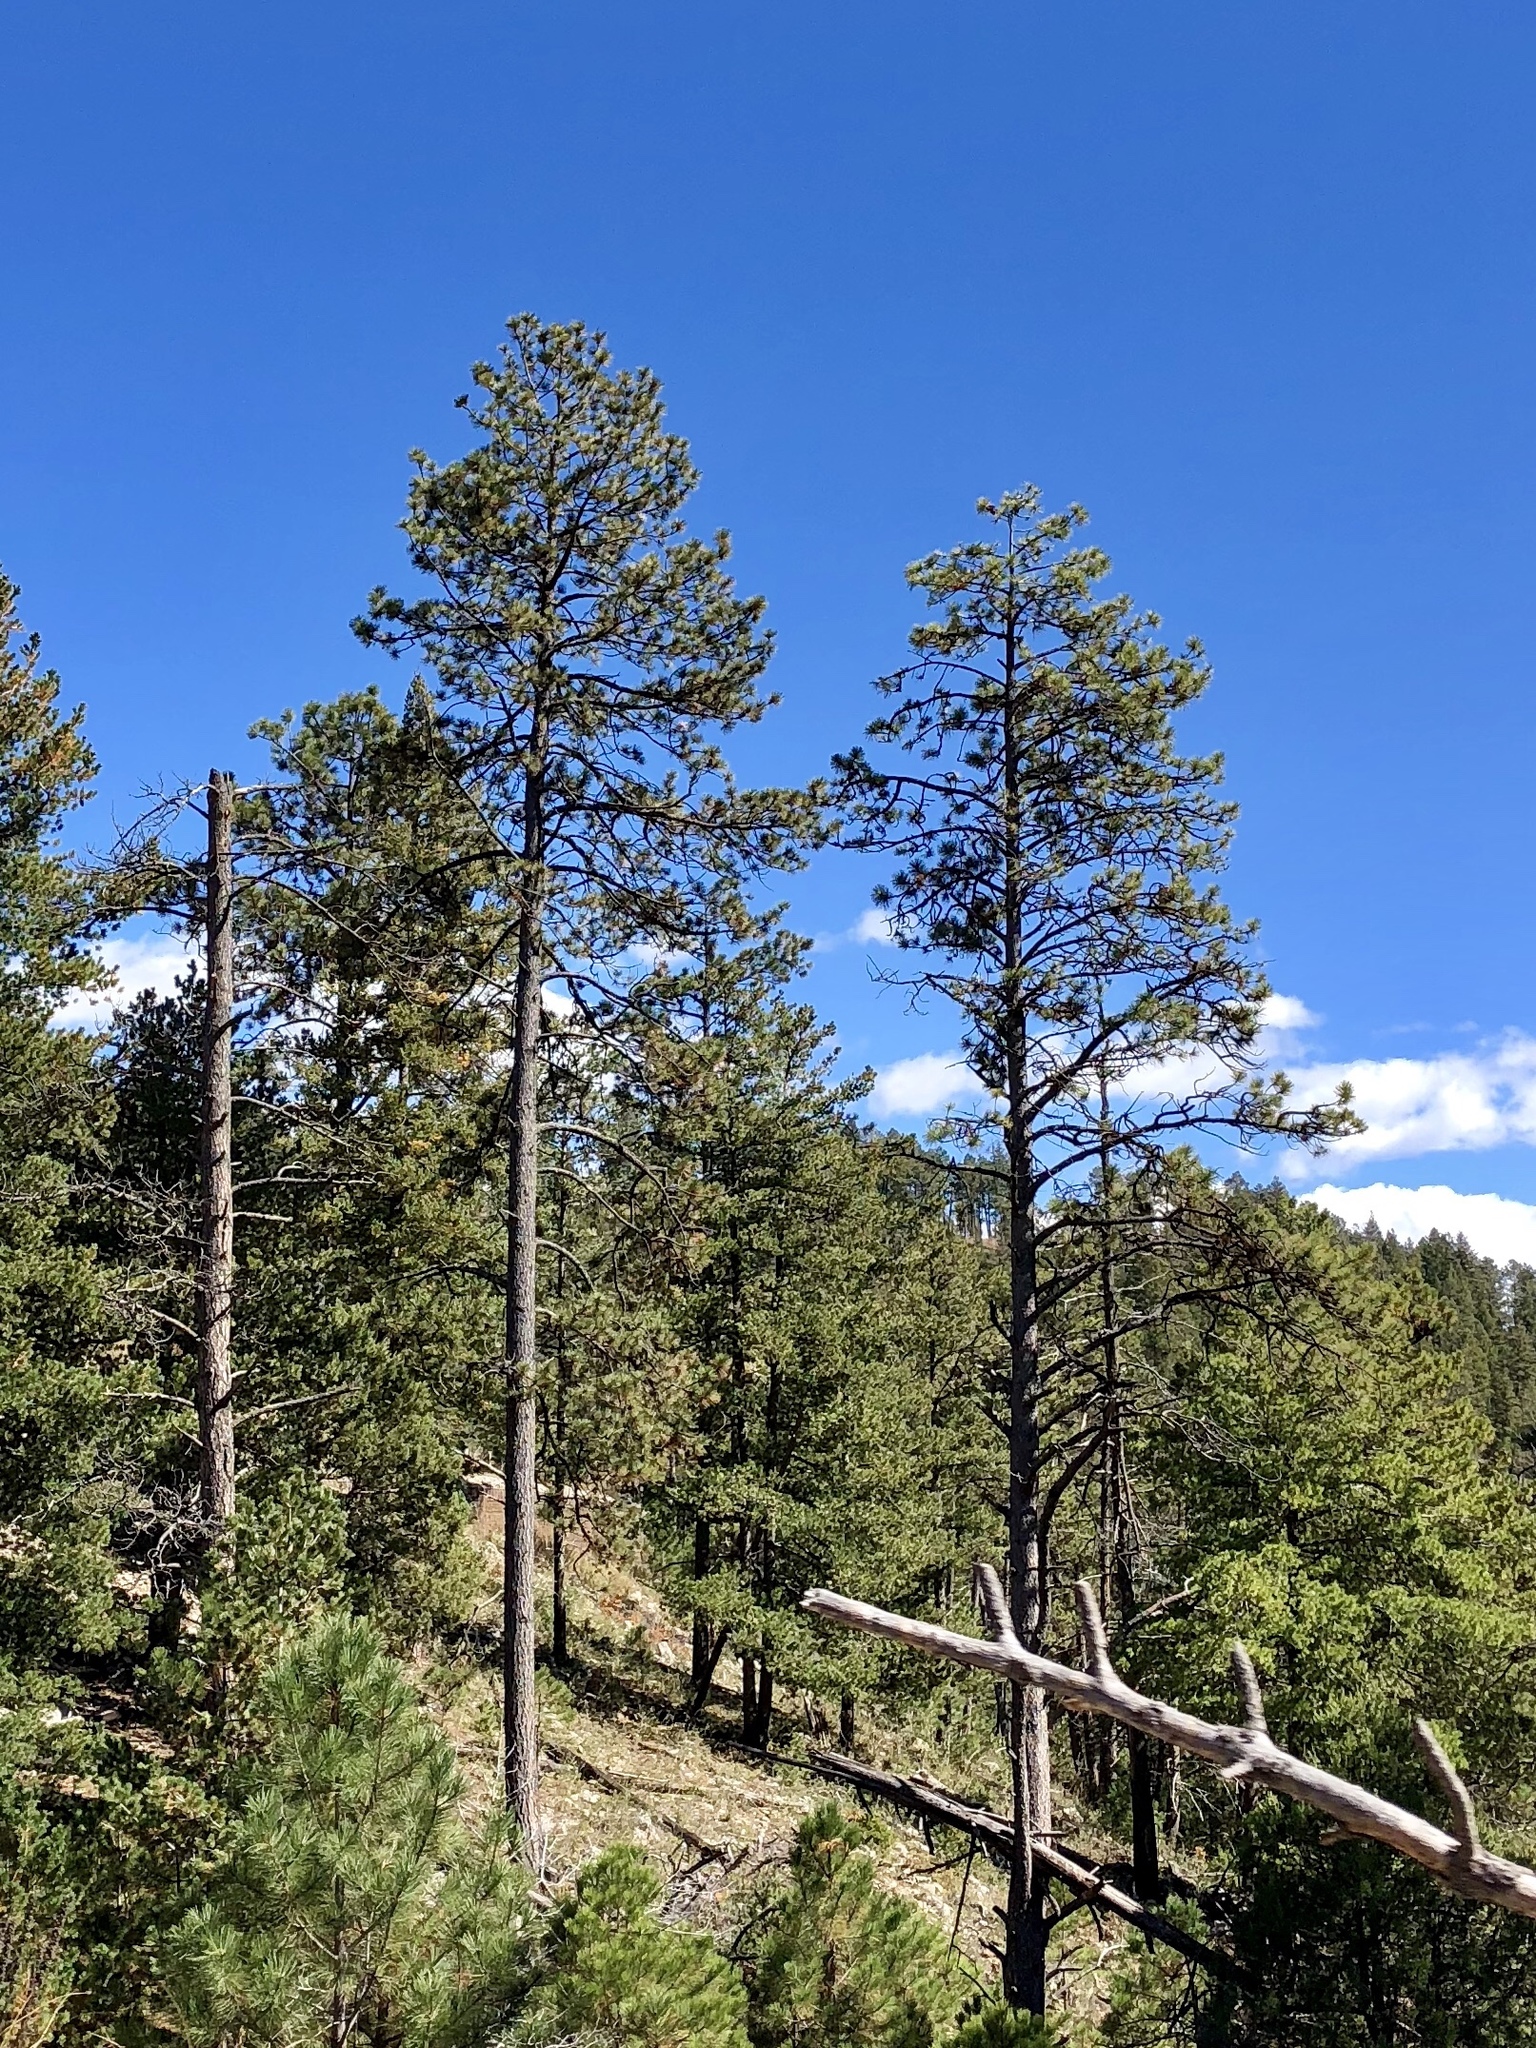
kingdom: Plantae
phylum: Tracheophyta
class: Pinopsida
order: Pinales
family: Pinaceae
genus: Pinus
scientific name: Pinus ponderosa
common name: Western yellow-pine
